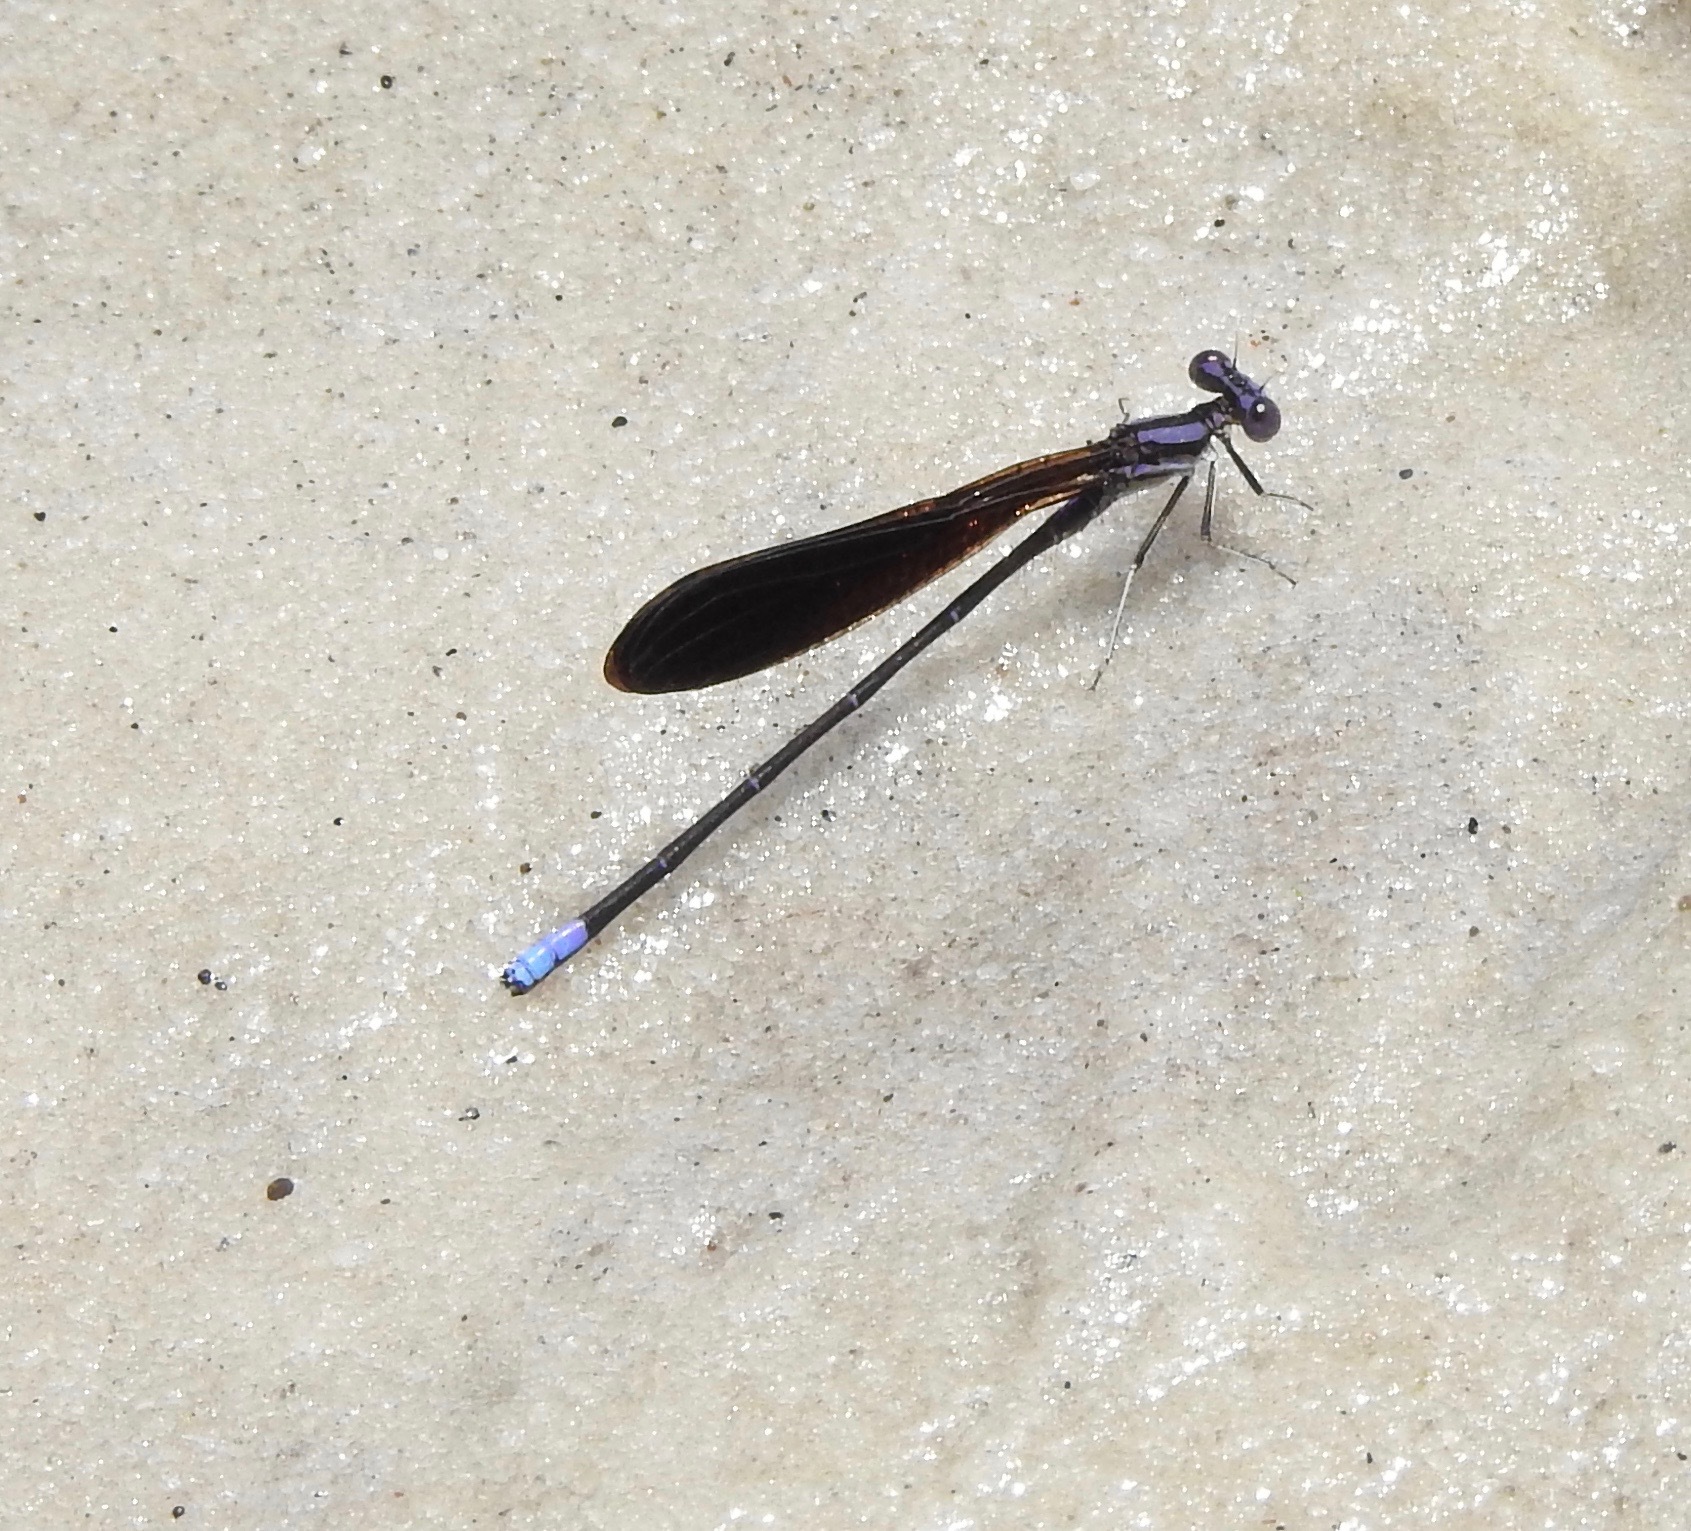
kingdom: Animalia
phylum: Arthropoda
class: Insecta
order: Odonata
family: Coenagrionidae
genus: Argia
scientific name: Argia fumipennis
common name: Variable dancer
